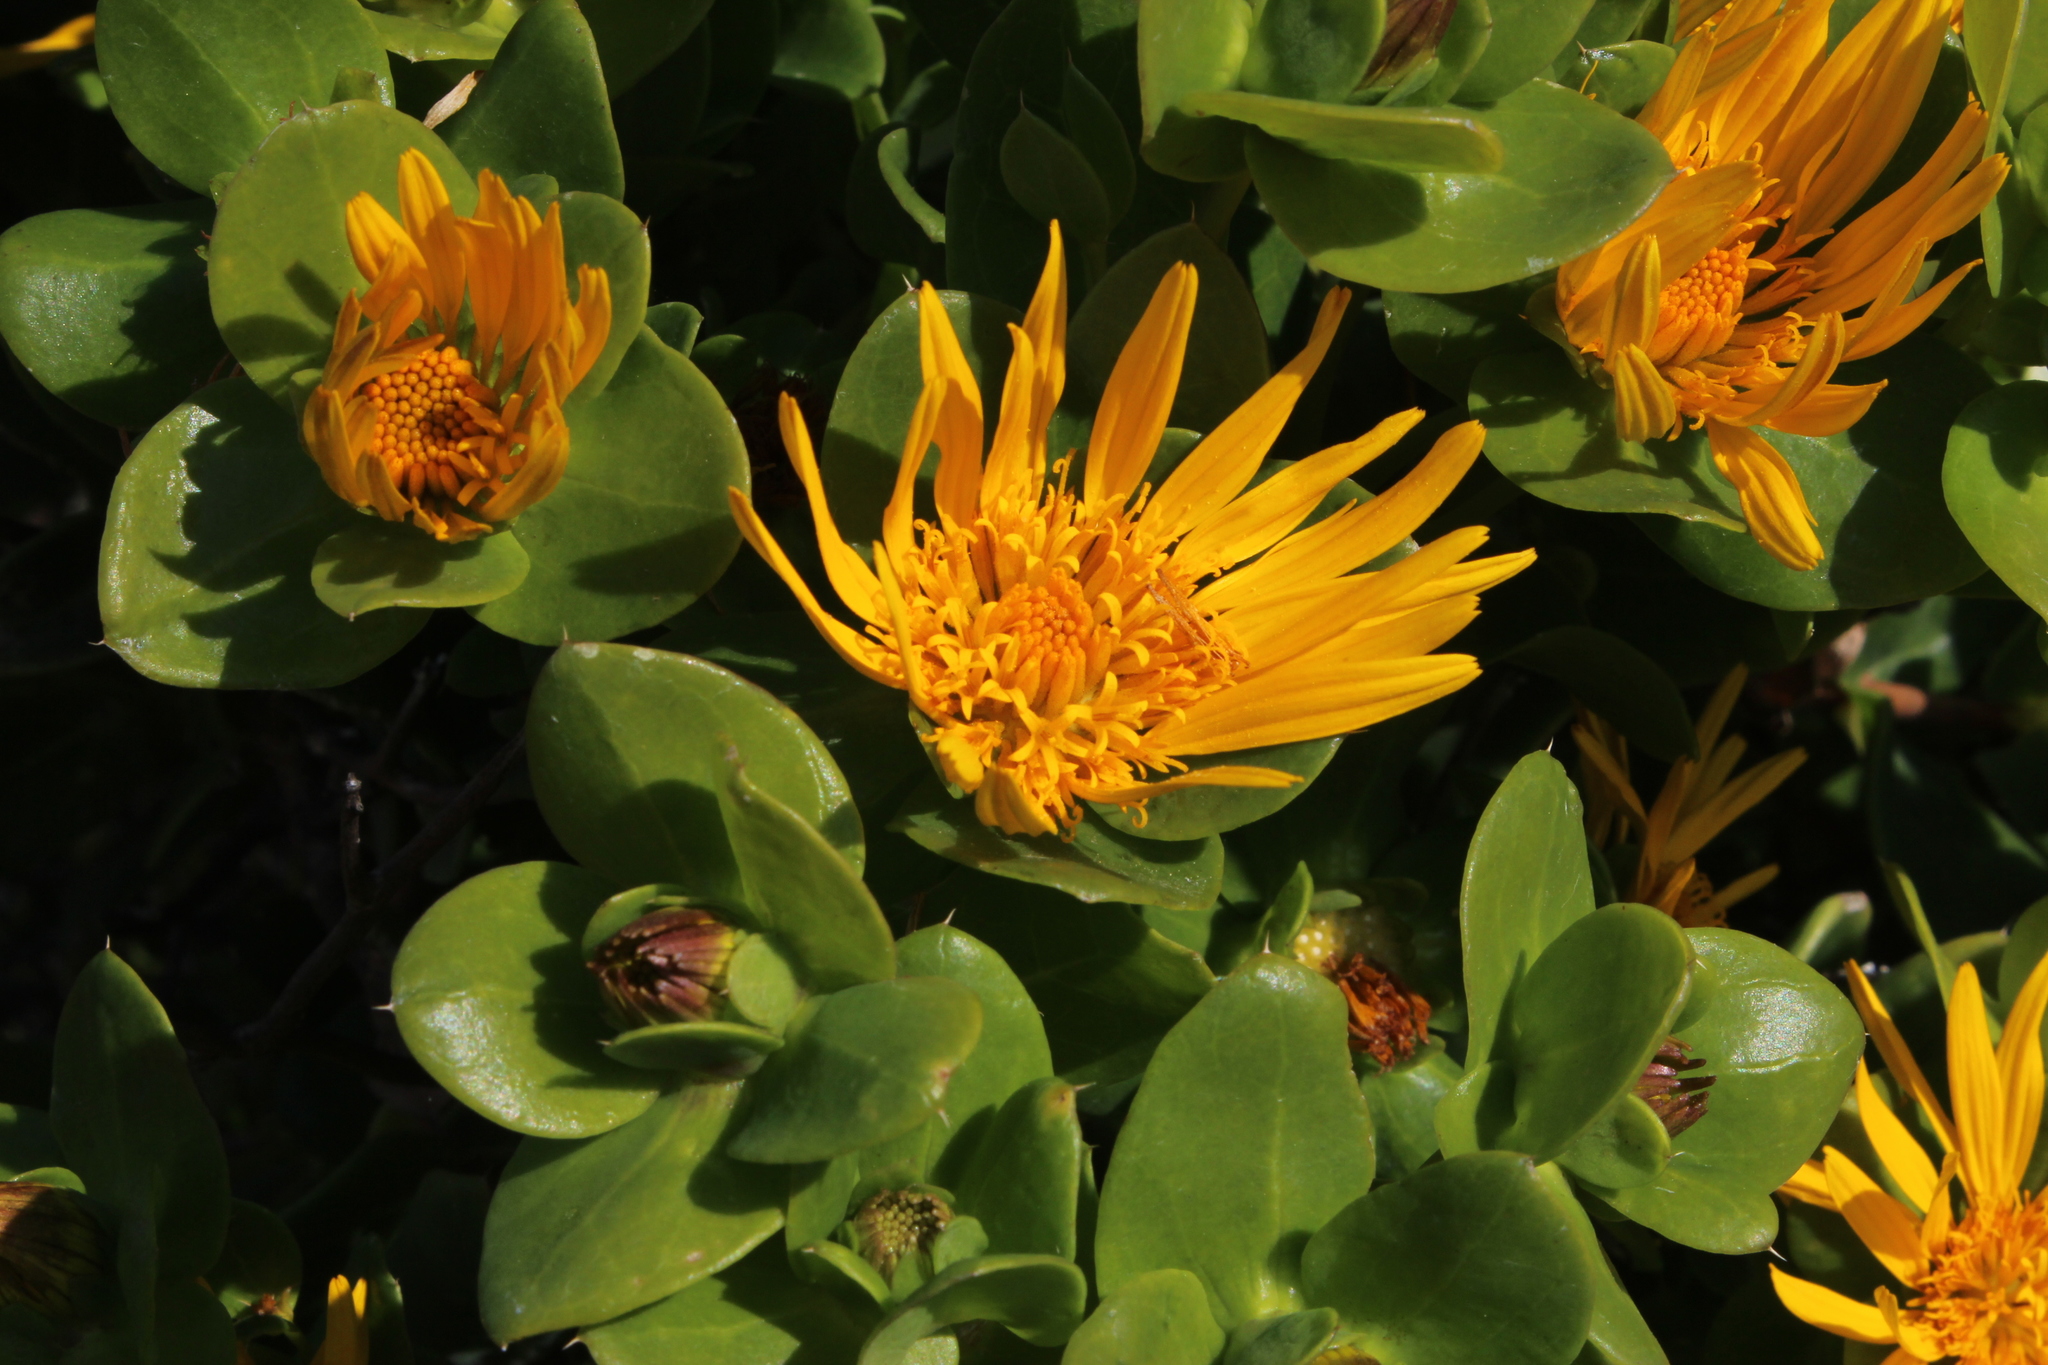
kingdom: Plantae
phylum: Tracheophyta
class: Magnoliopsida
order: Asterales
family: Asteraceae
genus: Didelta
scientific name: Didelta spinosa
